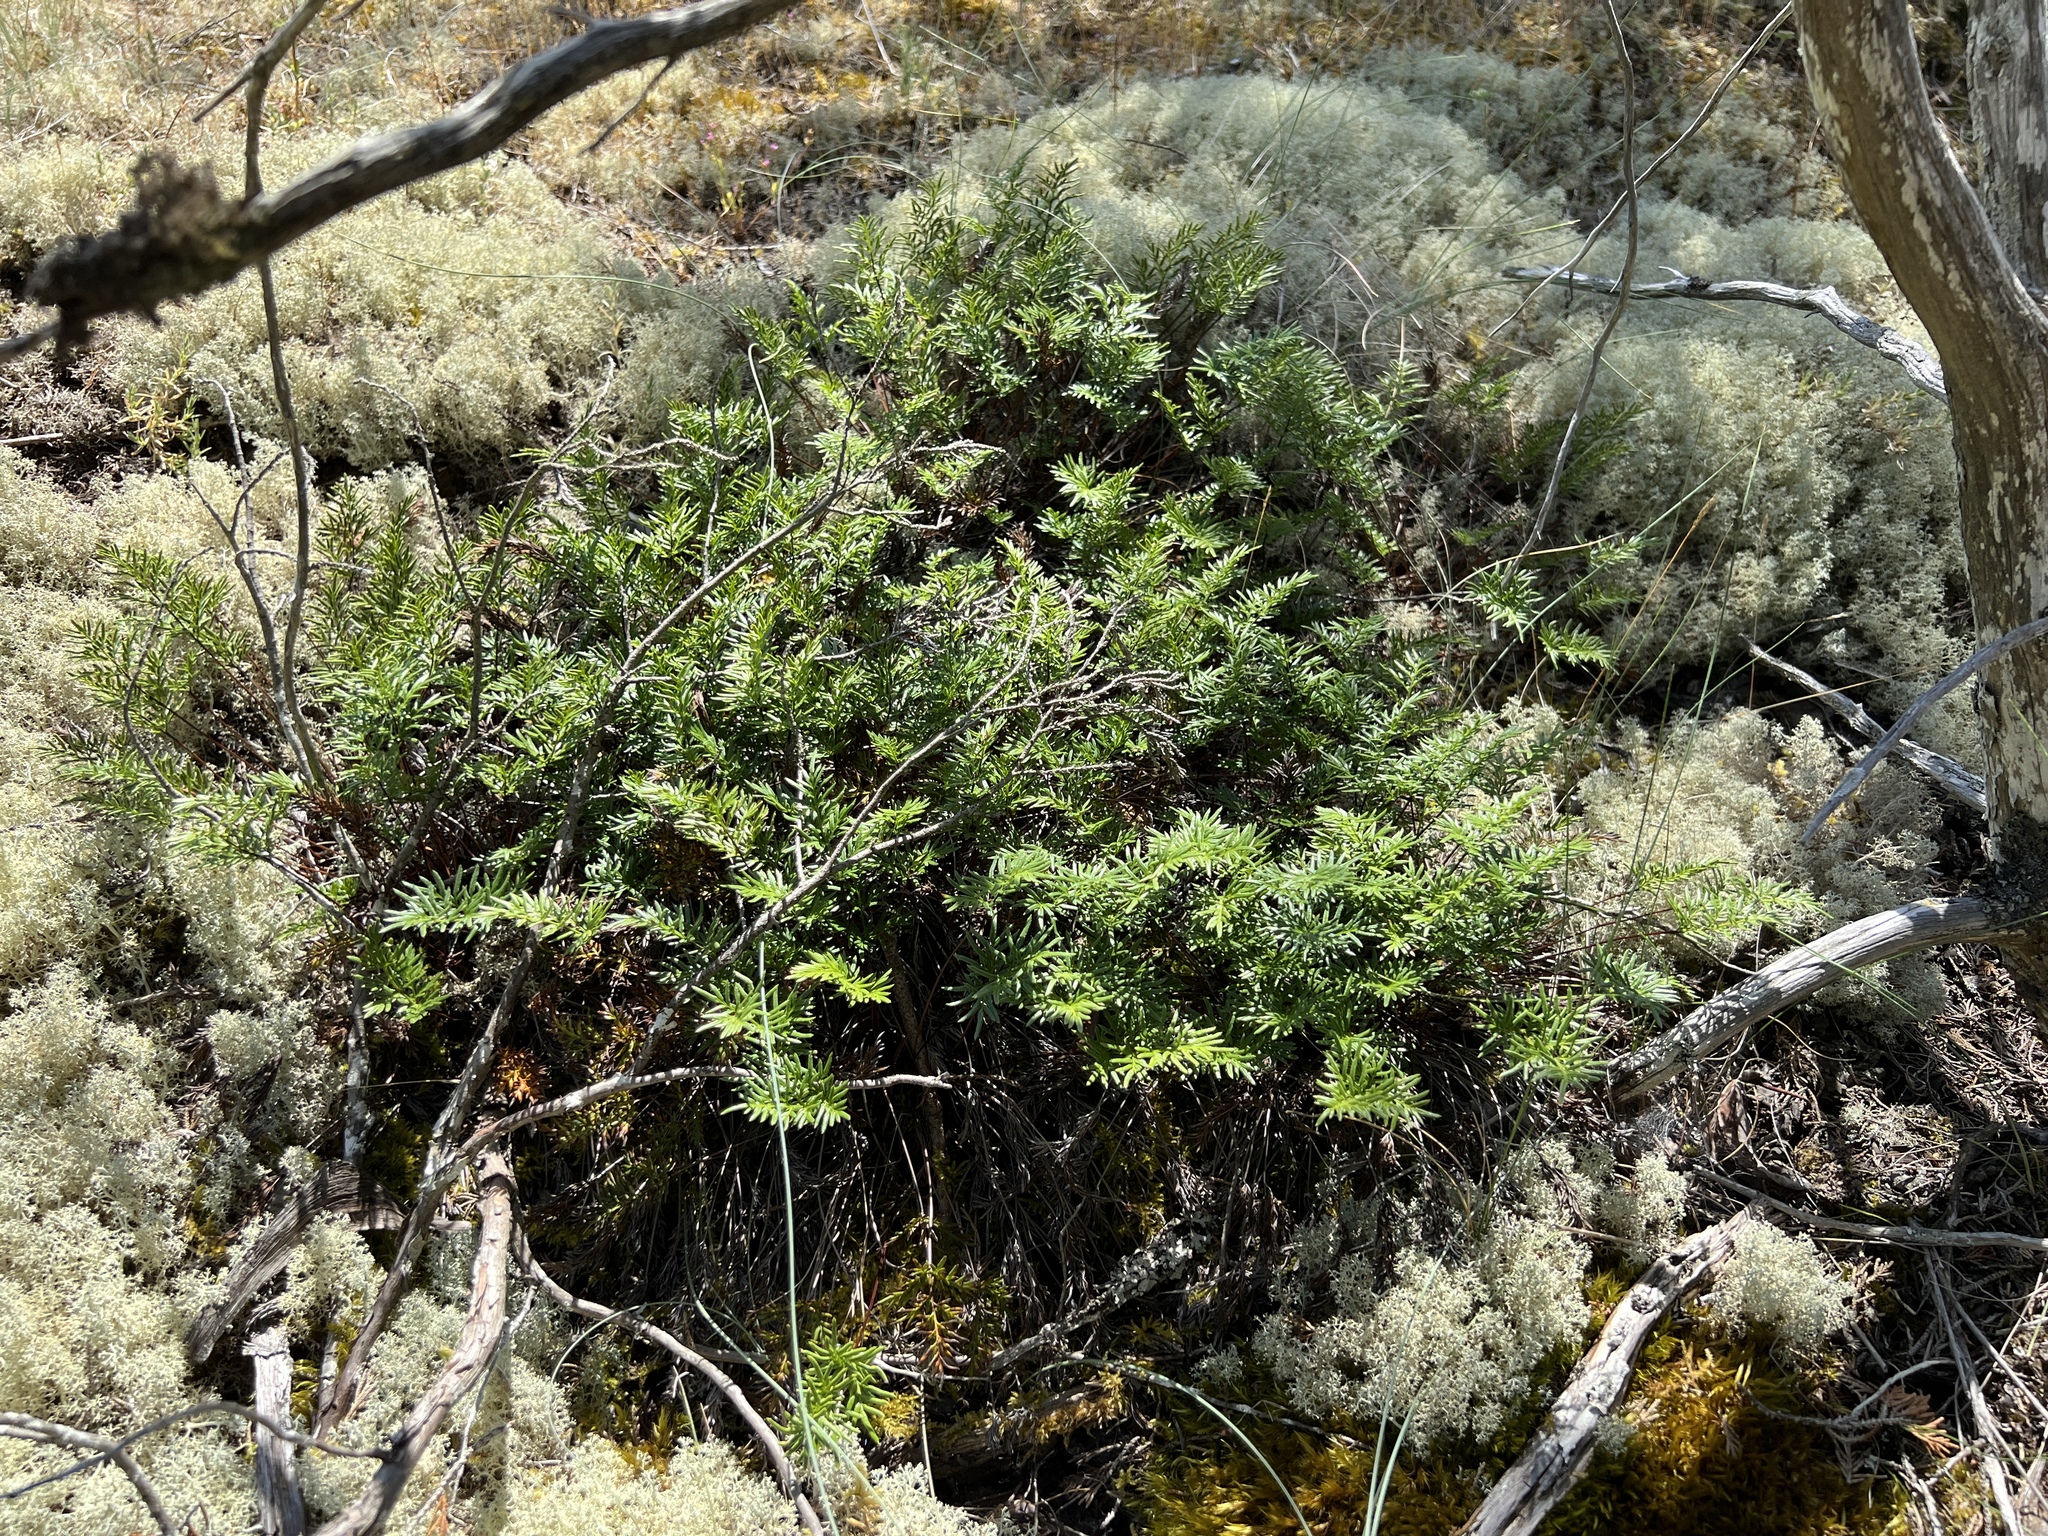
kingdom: Plantae
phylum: Tracheophyta
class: Polypodiopsida
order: Polypodiales
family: Pteridaceae
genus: Aspidotis
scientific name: Aspidotis densa
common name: Indian's dream
